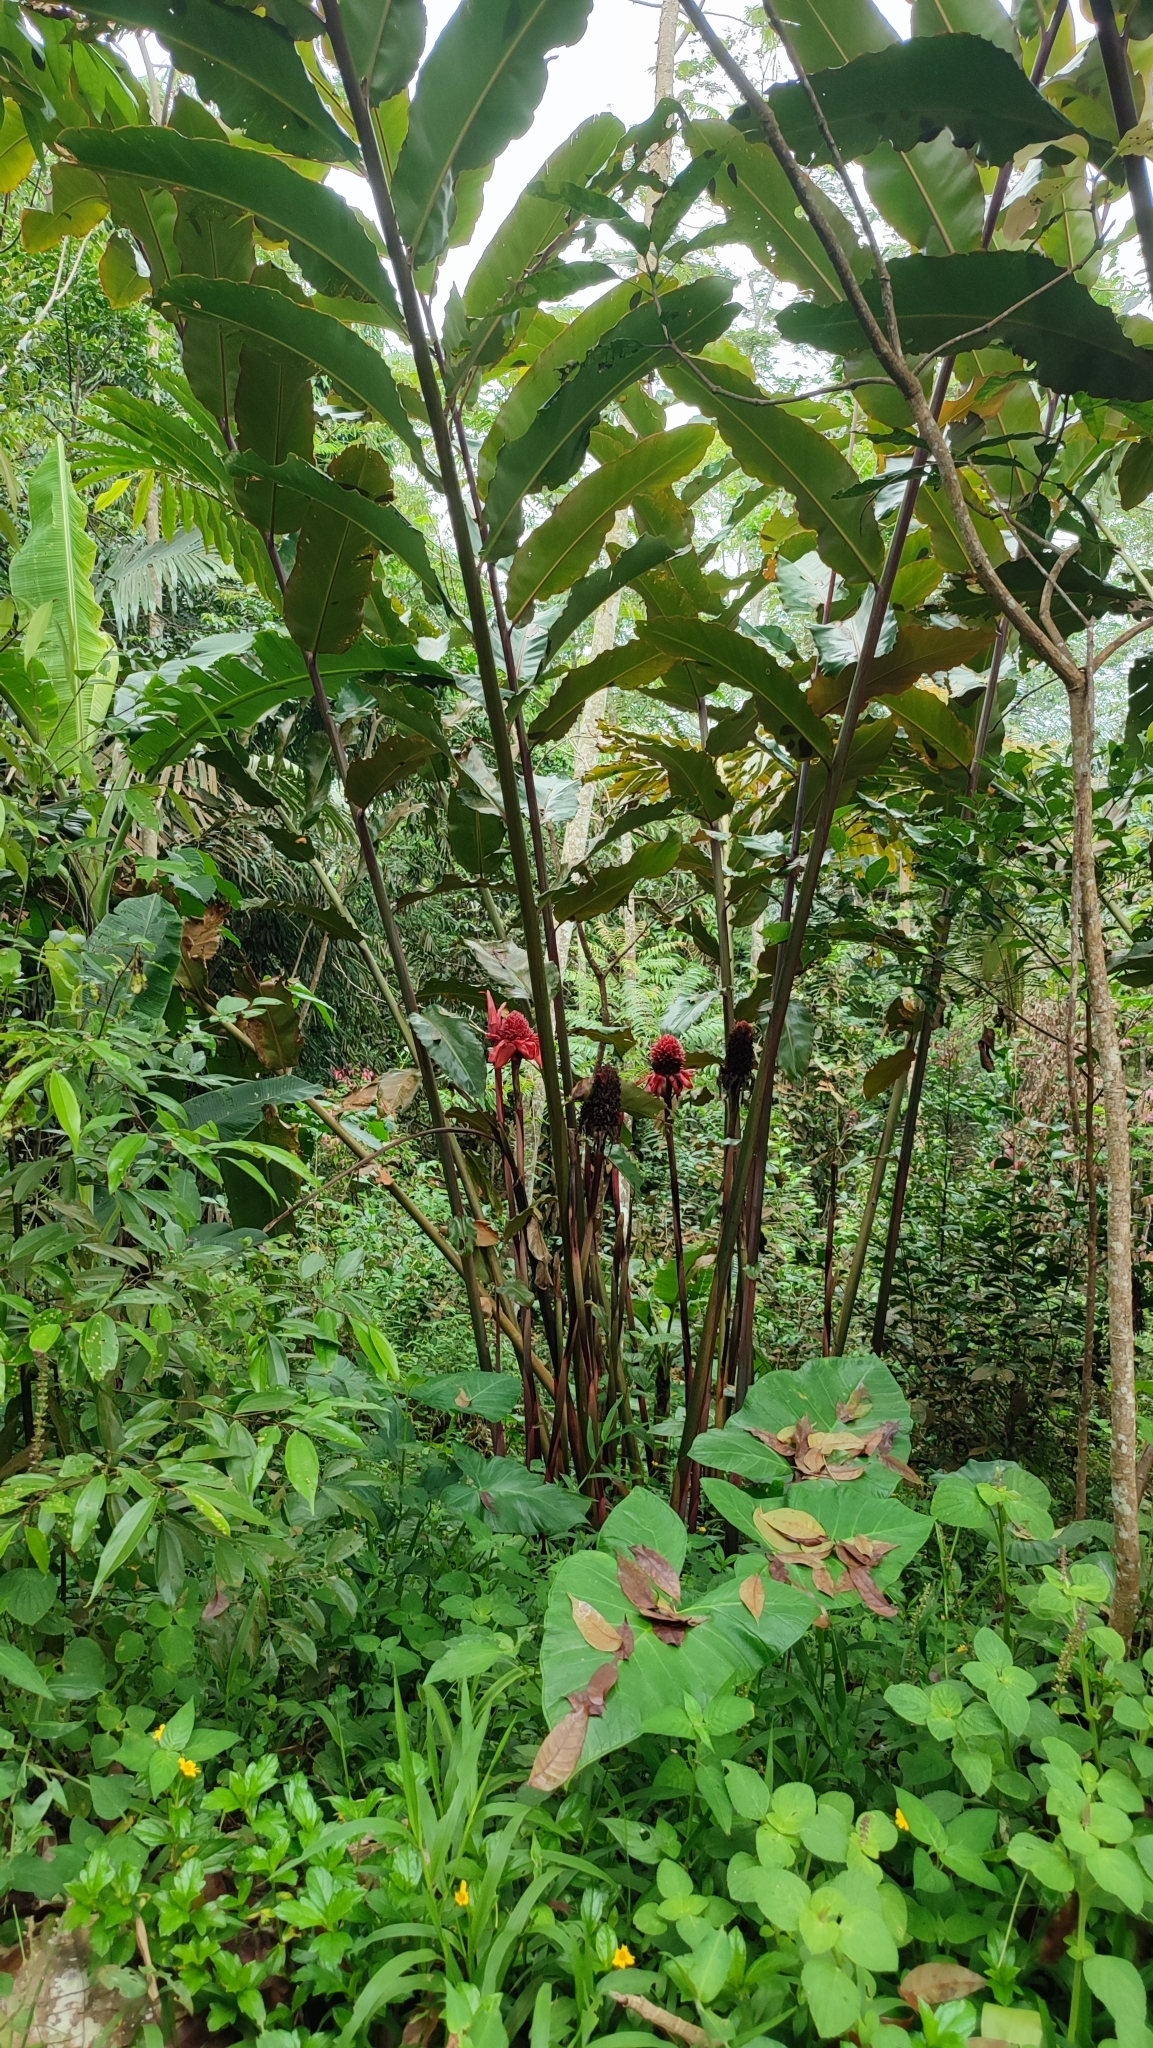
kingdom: Plantae
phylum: Tracheophyta
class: Liliopsida
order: Zingiberales
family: Zingiberaceae
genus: Etlingera
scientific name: Etlingera elatior
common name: Philippine waxflower
